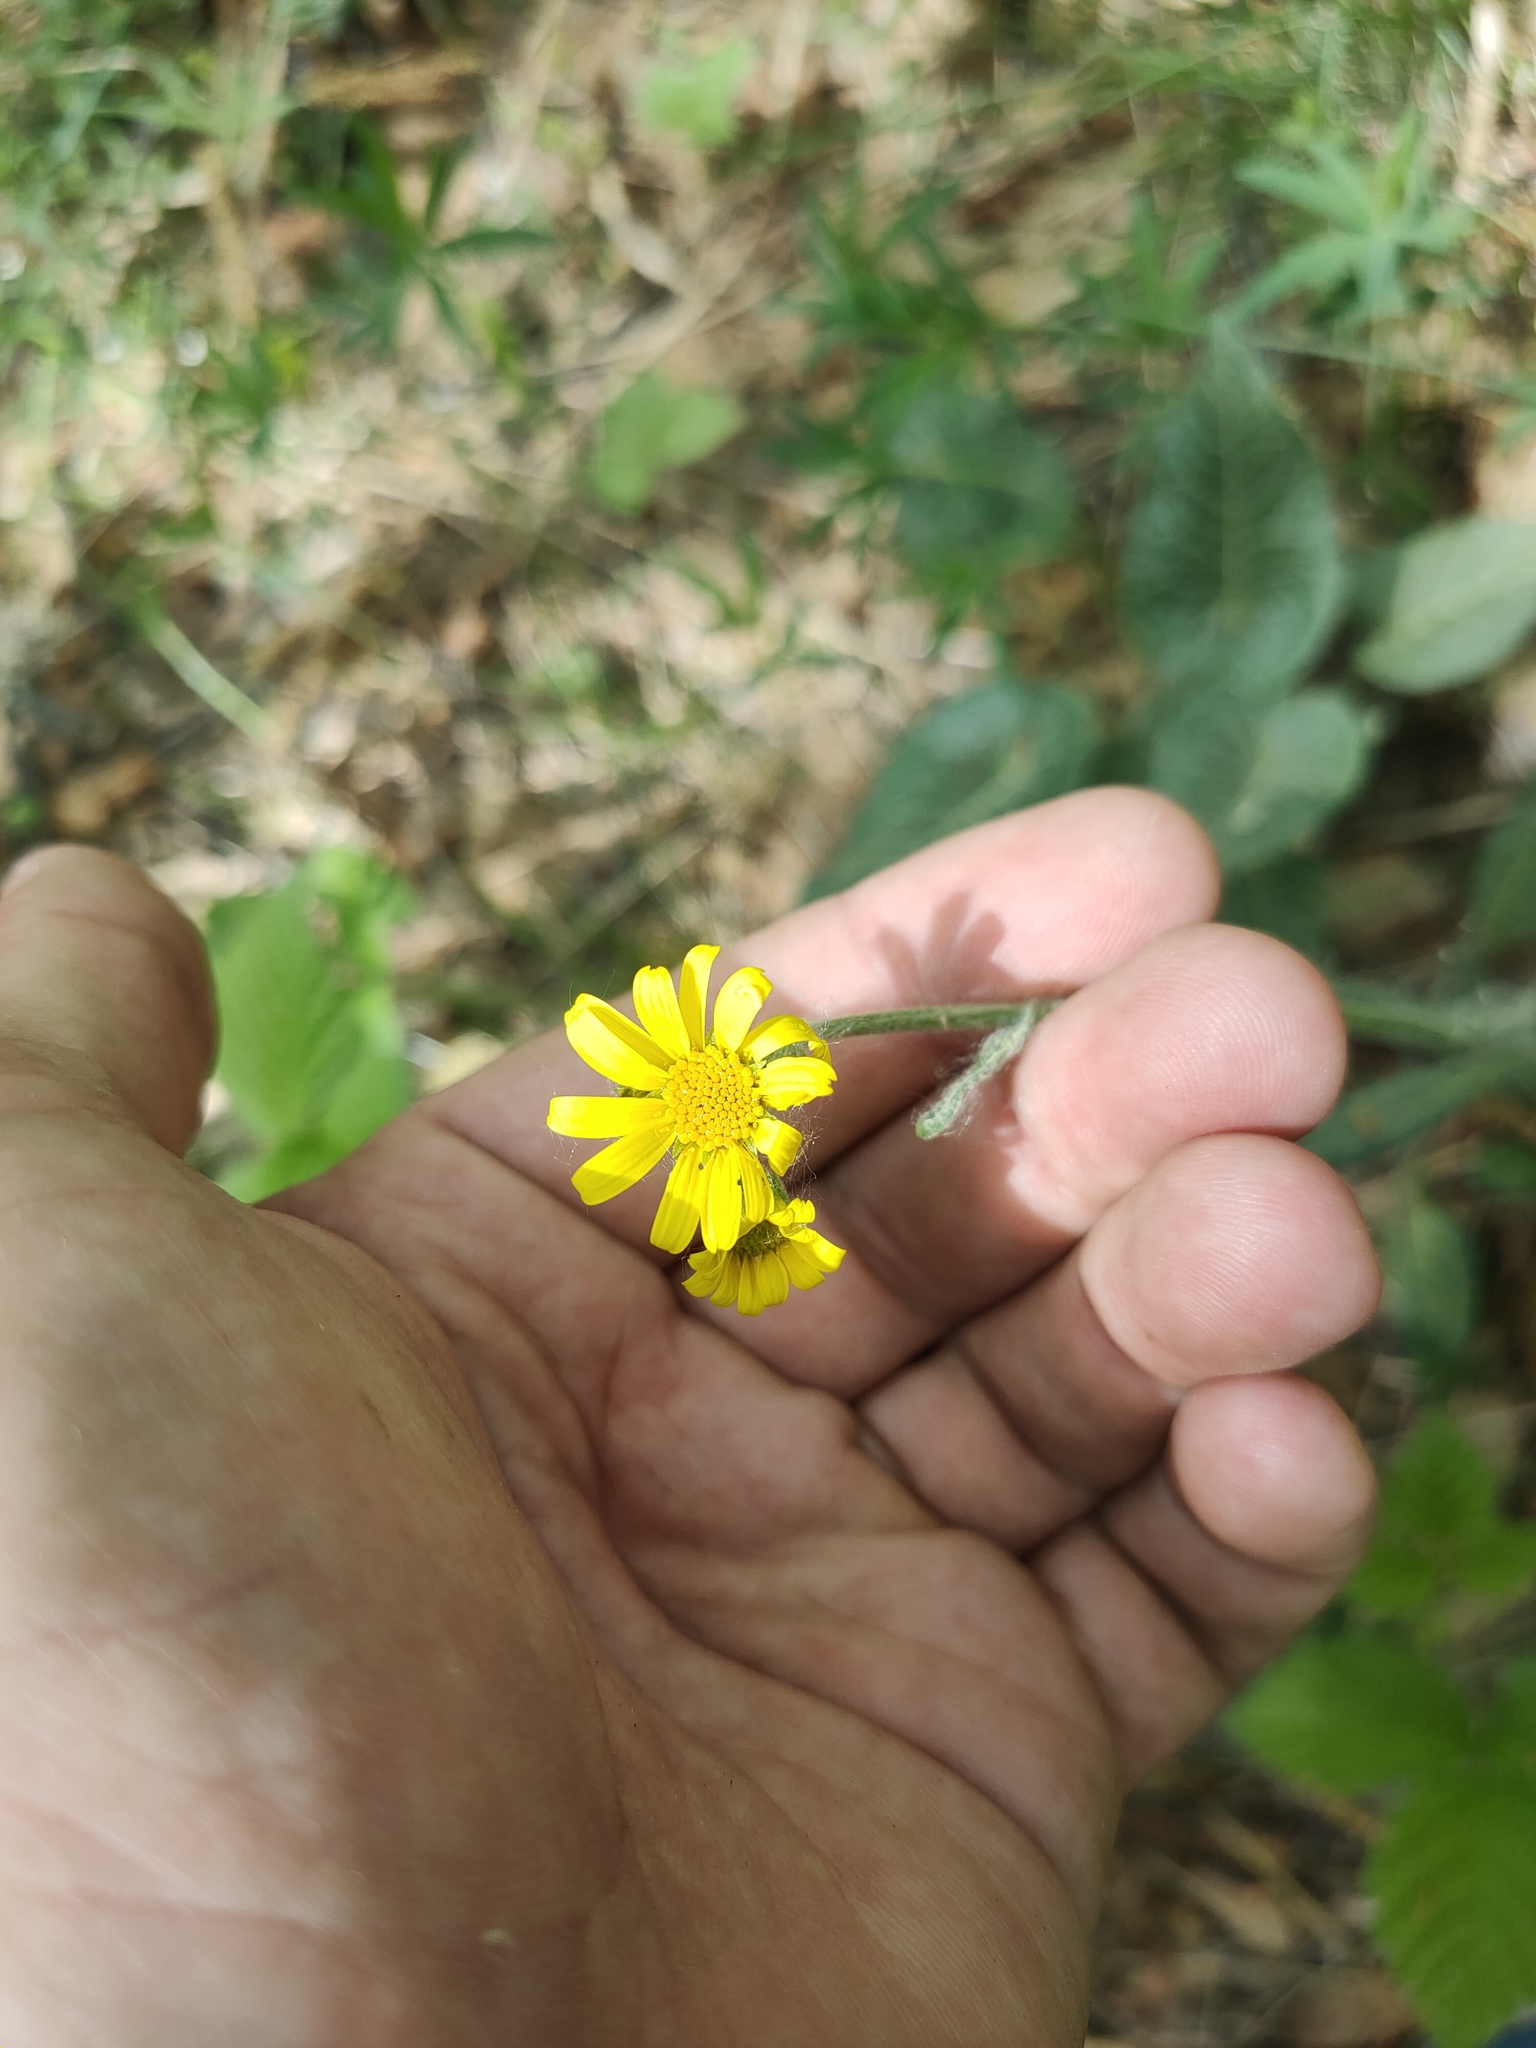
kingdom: Plantae
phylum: Tracheophyta
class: Magnoliopsida
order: Asterales
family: Asteraceae
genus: Tephroseris
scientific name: Tephroseris integrifolia
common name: Field fleawort
